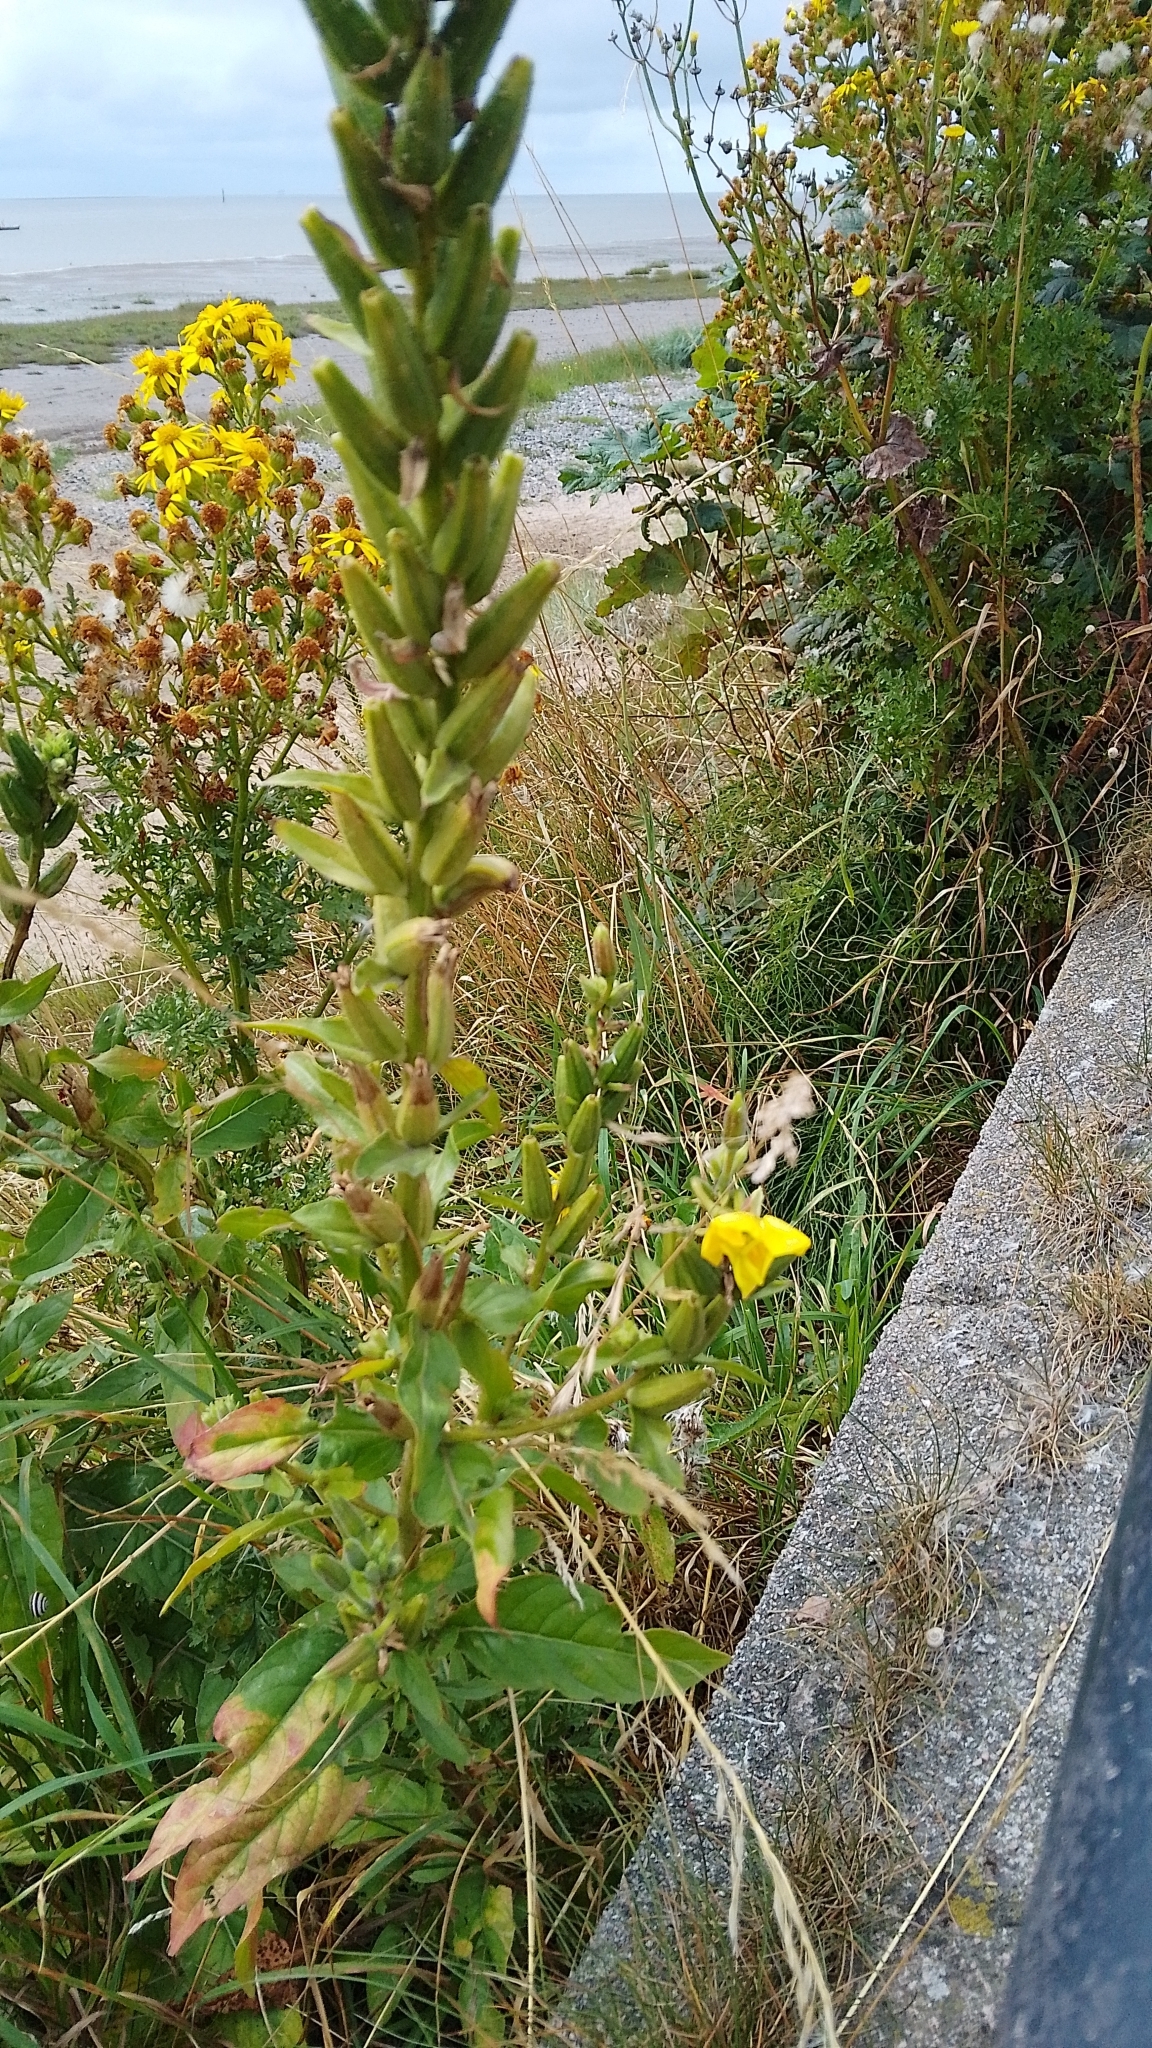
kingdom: Plantae
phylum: Tracheophyta
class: Magnoliopsida
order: Myrtales
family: Onagraceae
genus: Oenothera
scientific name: Oenothera biennis
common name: Common evening-primrose
